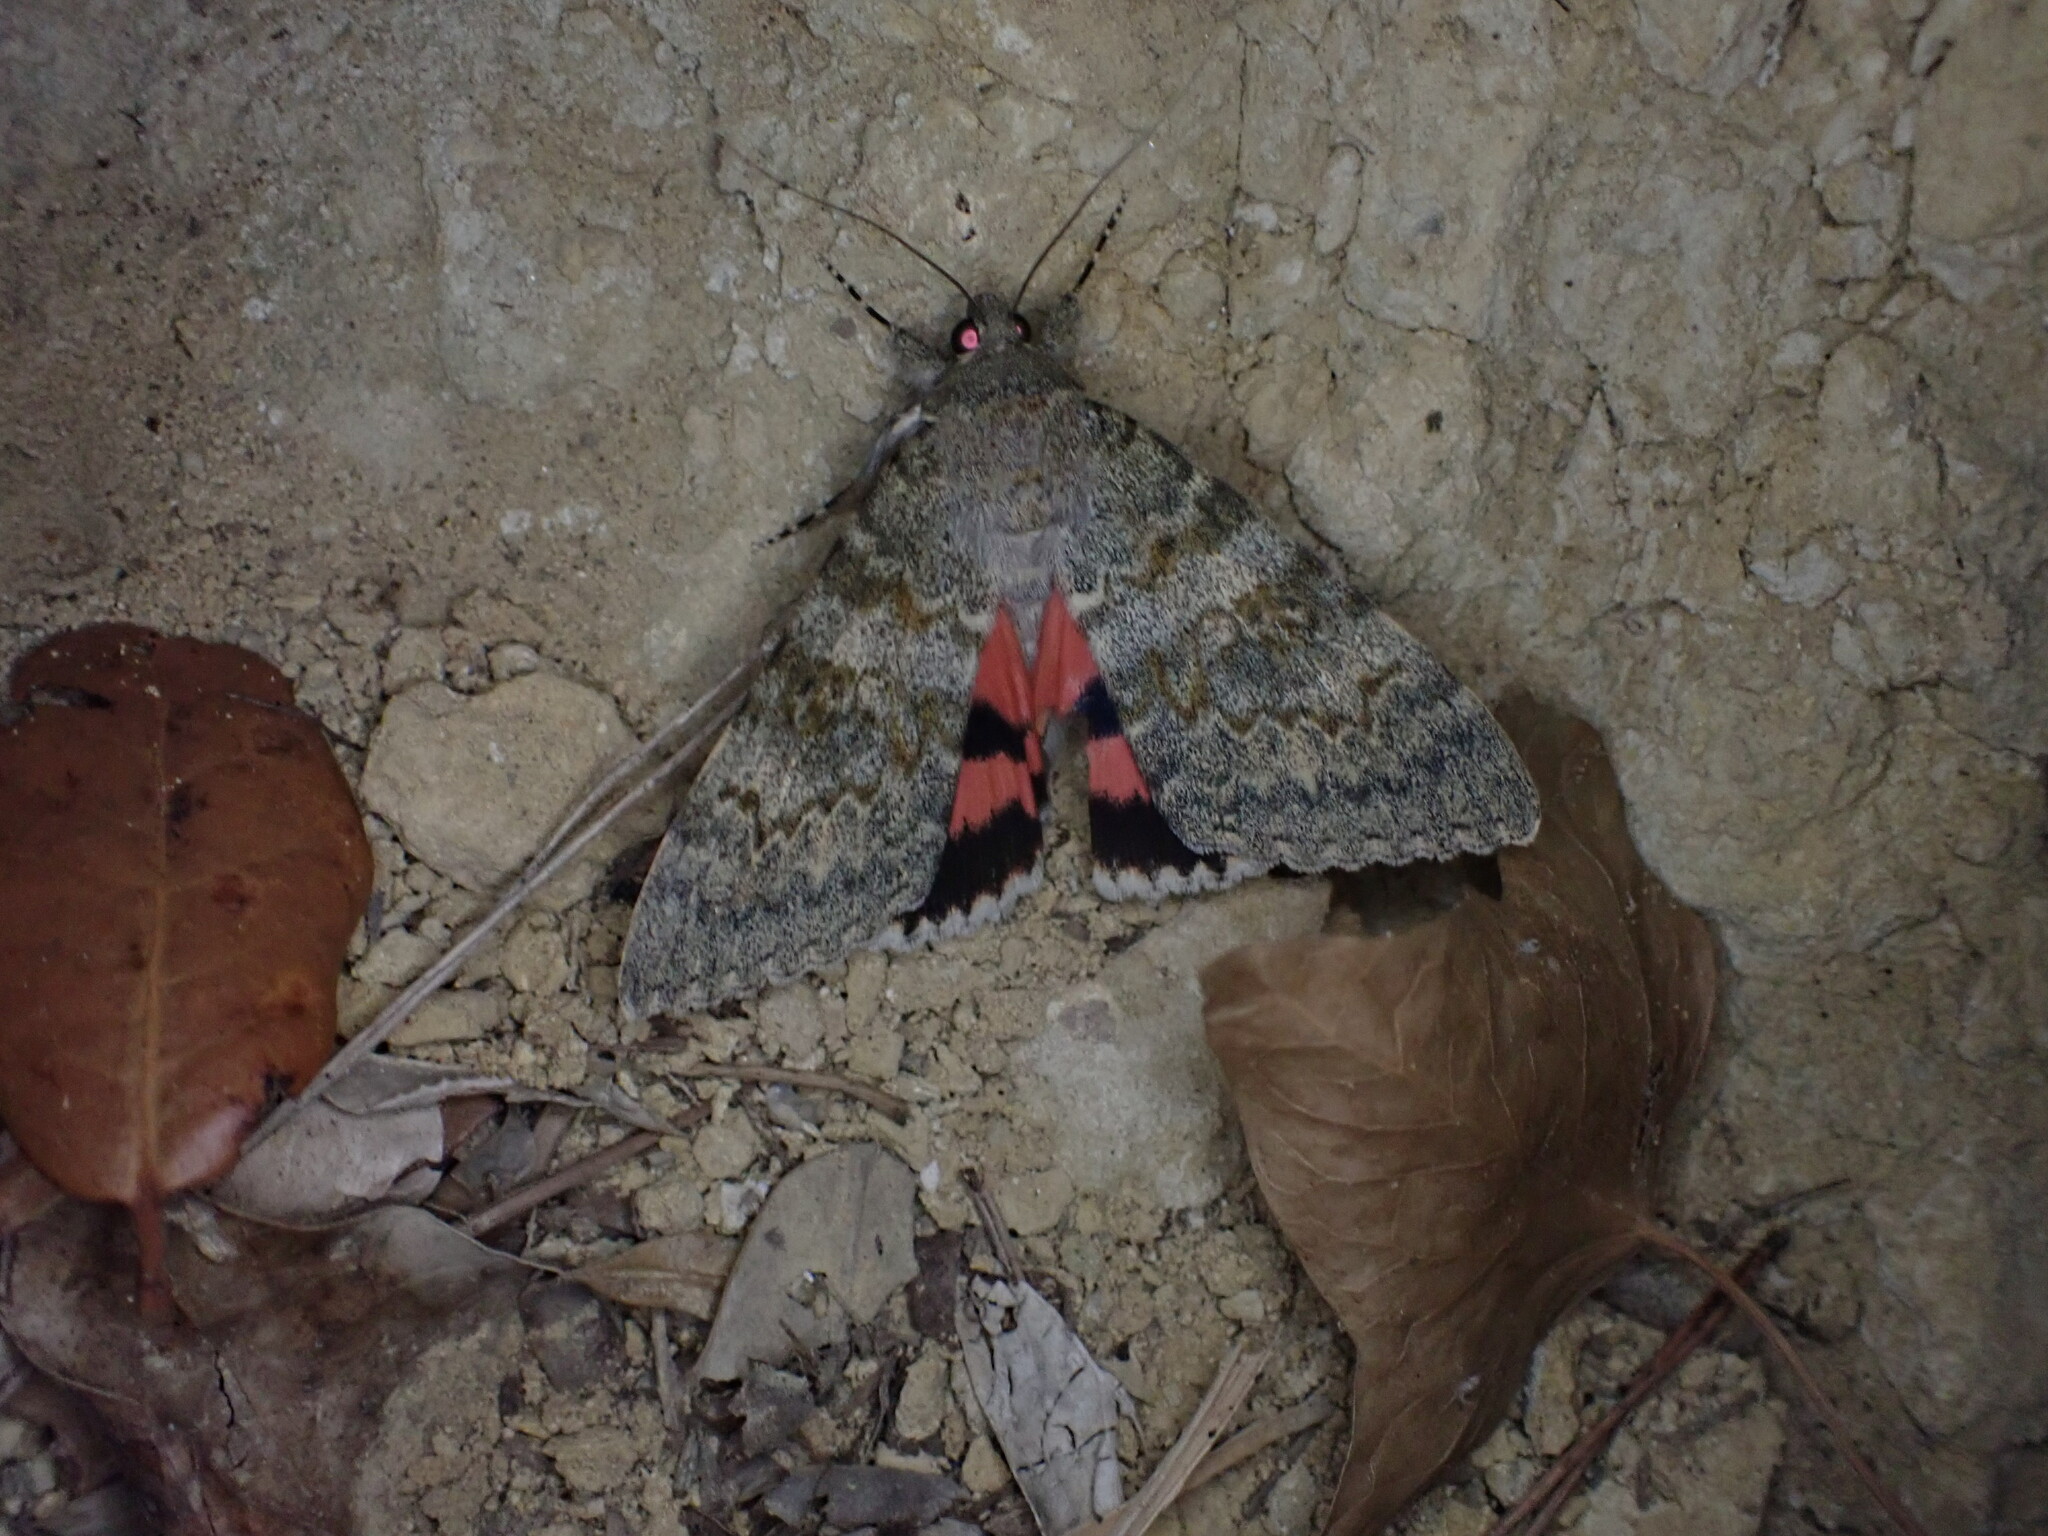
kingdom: Animalia
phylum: Arthropoda
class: Insecta
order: Lepidoptera
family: Erebidae
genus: Catocala
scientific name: Catocala elocata
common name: French red underwing
